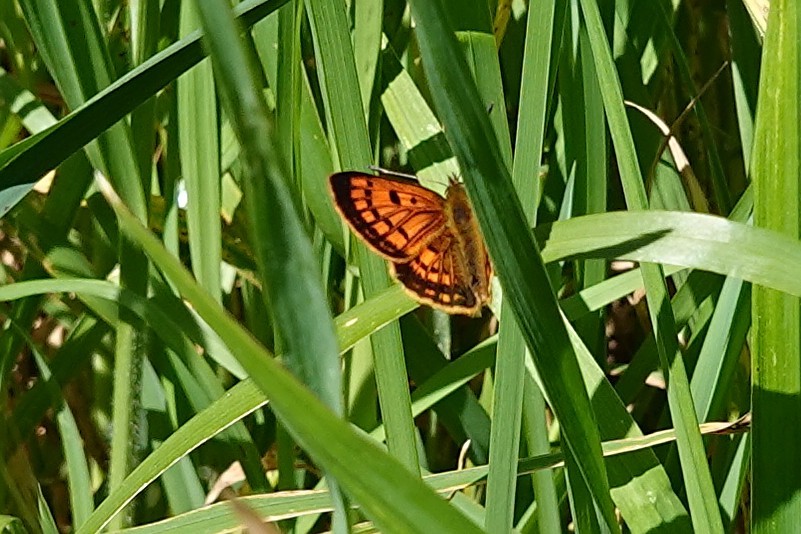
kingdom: Animalia
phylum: Arthropoda
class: Insecta
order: Lepidoptera
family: Lycaenidae
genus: Lycaena
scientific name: Lycaena
